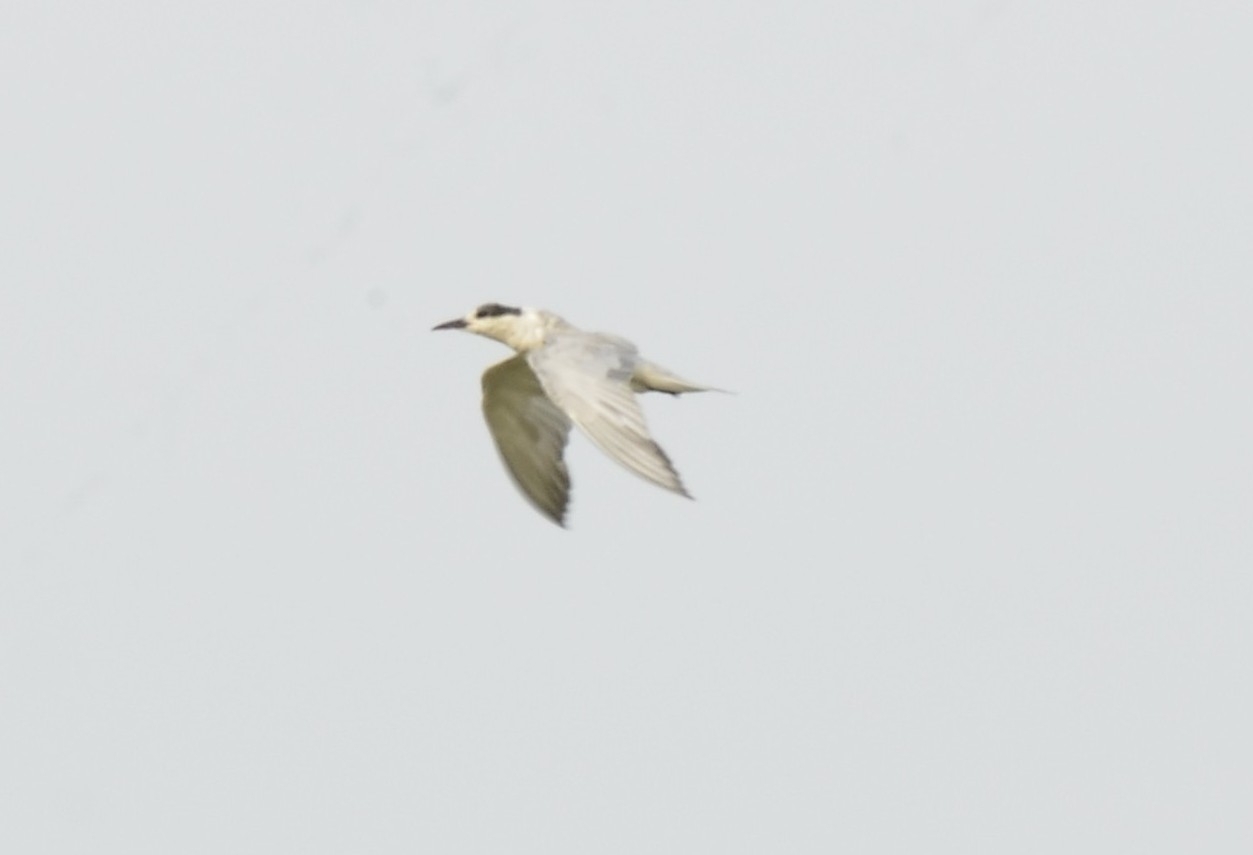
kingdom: Animalia
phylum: Chordata
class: Aves
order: Charadriiformes
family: Laridae
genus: Chlidonias
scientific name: Chlidonias hybrida
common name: Whiskered tern
